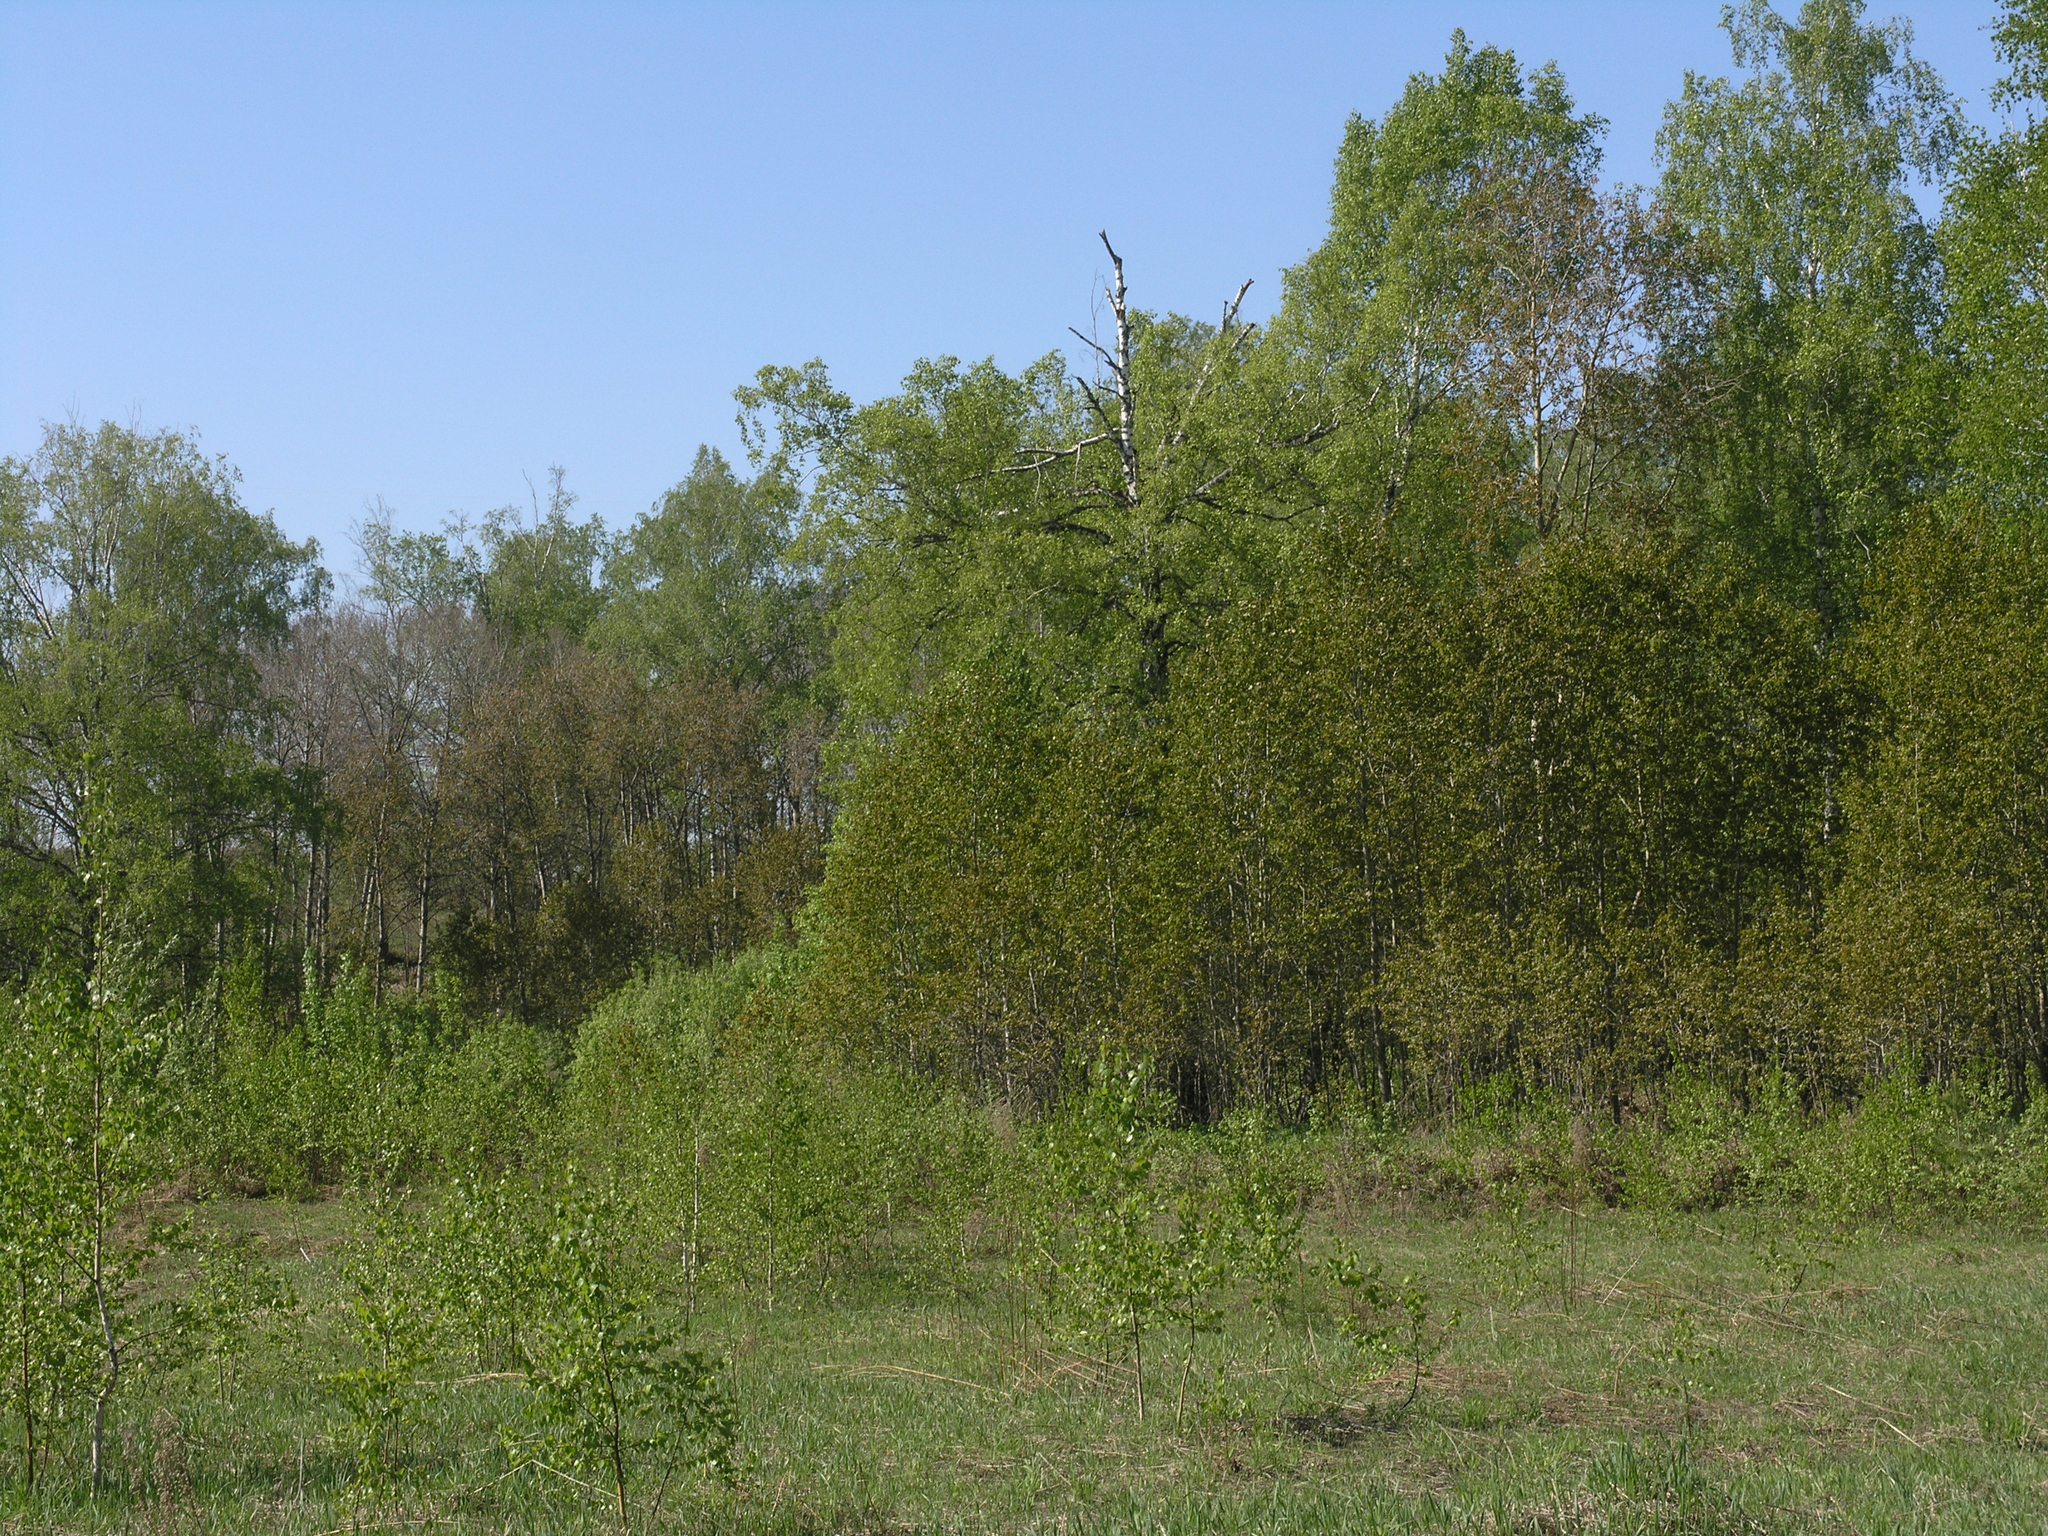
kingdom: Plantae
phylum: Tracheophyta
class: Magnoliopsida
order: Malpighiales
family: Salicaceae
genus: Populus
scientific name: Populus tremula
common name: European aspen
